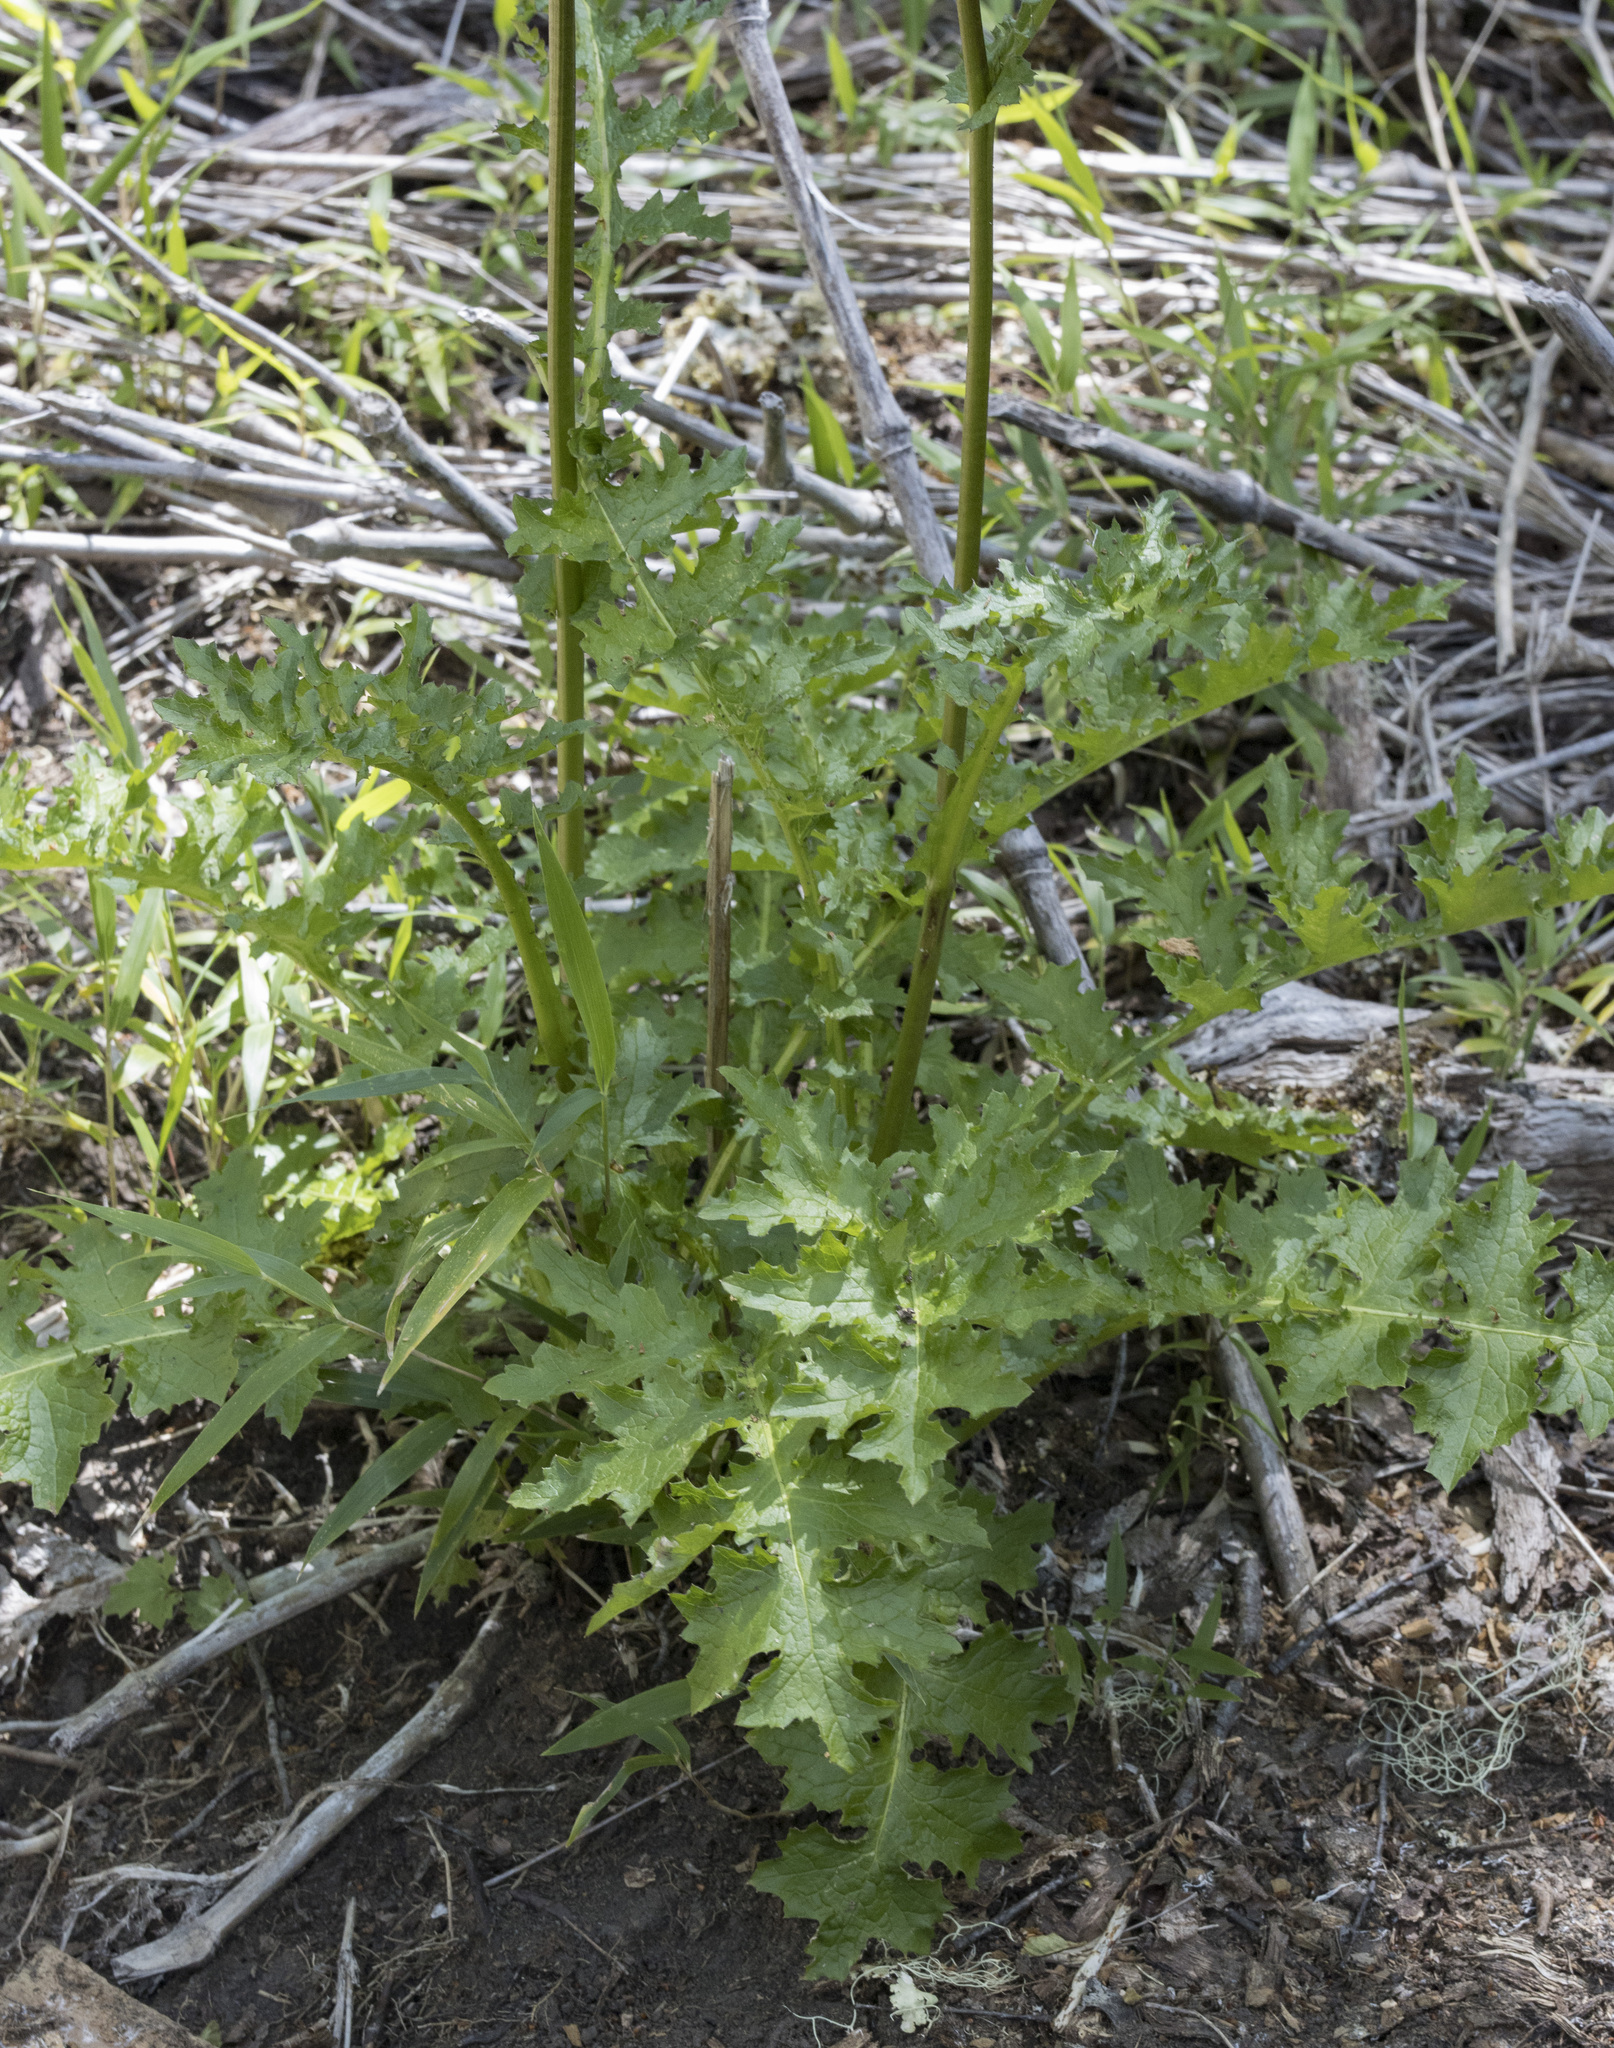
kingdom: Plantae
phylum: Tracheophyta
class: Magnoliopsida
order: Asterales
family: Asteraceae
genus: Perezia
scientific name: Perezia prenanthoides
